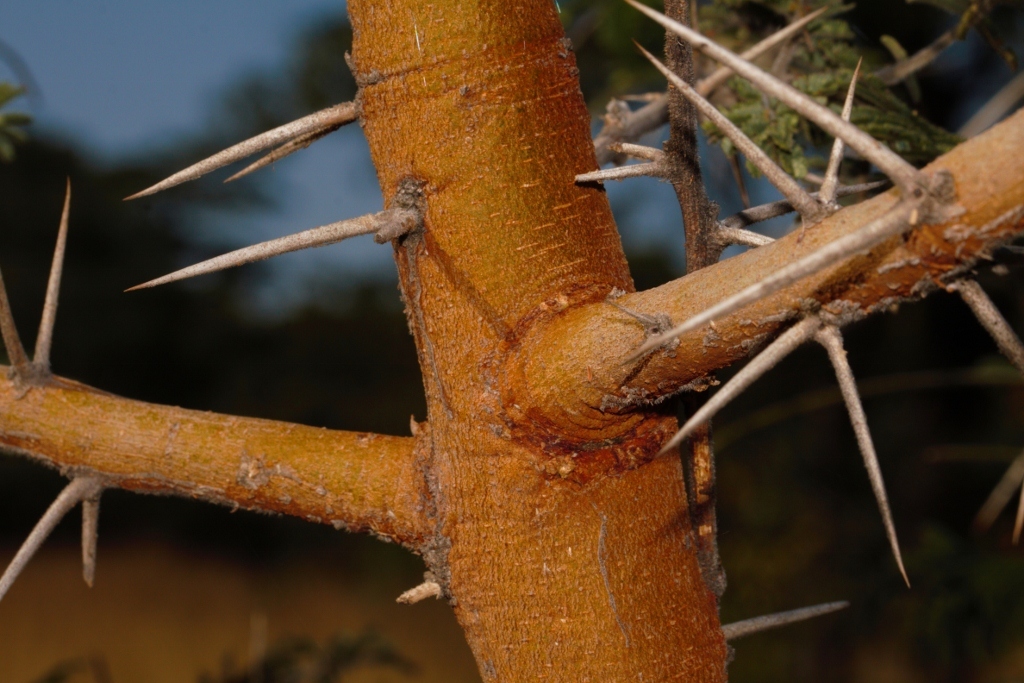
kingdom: Plantae
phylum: Tracheophyta
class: Magnoliopsida
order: Fabales
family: Fabaceae
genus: Vachellia
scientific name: Vachellia rehmanniana
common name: Silky thorn
